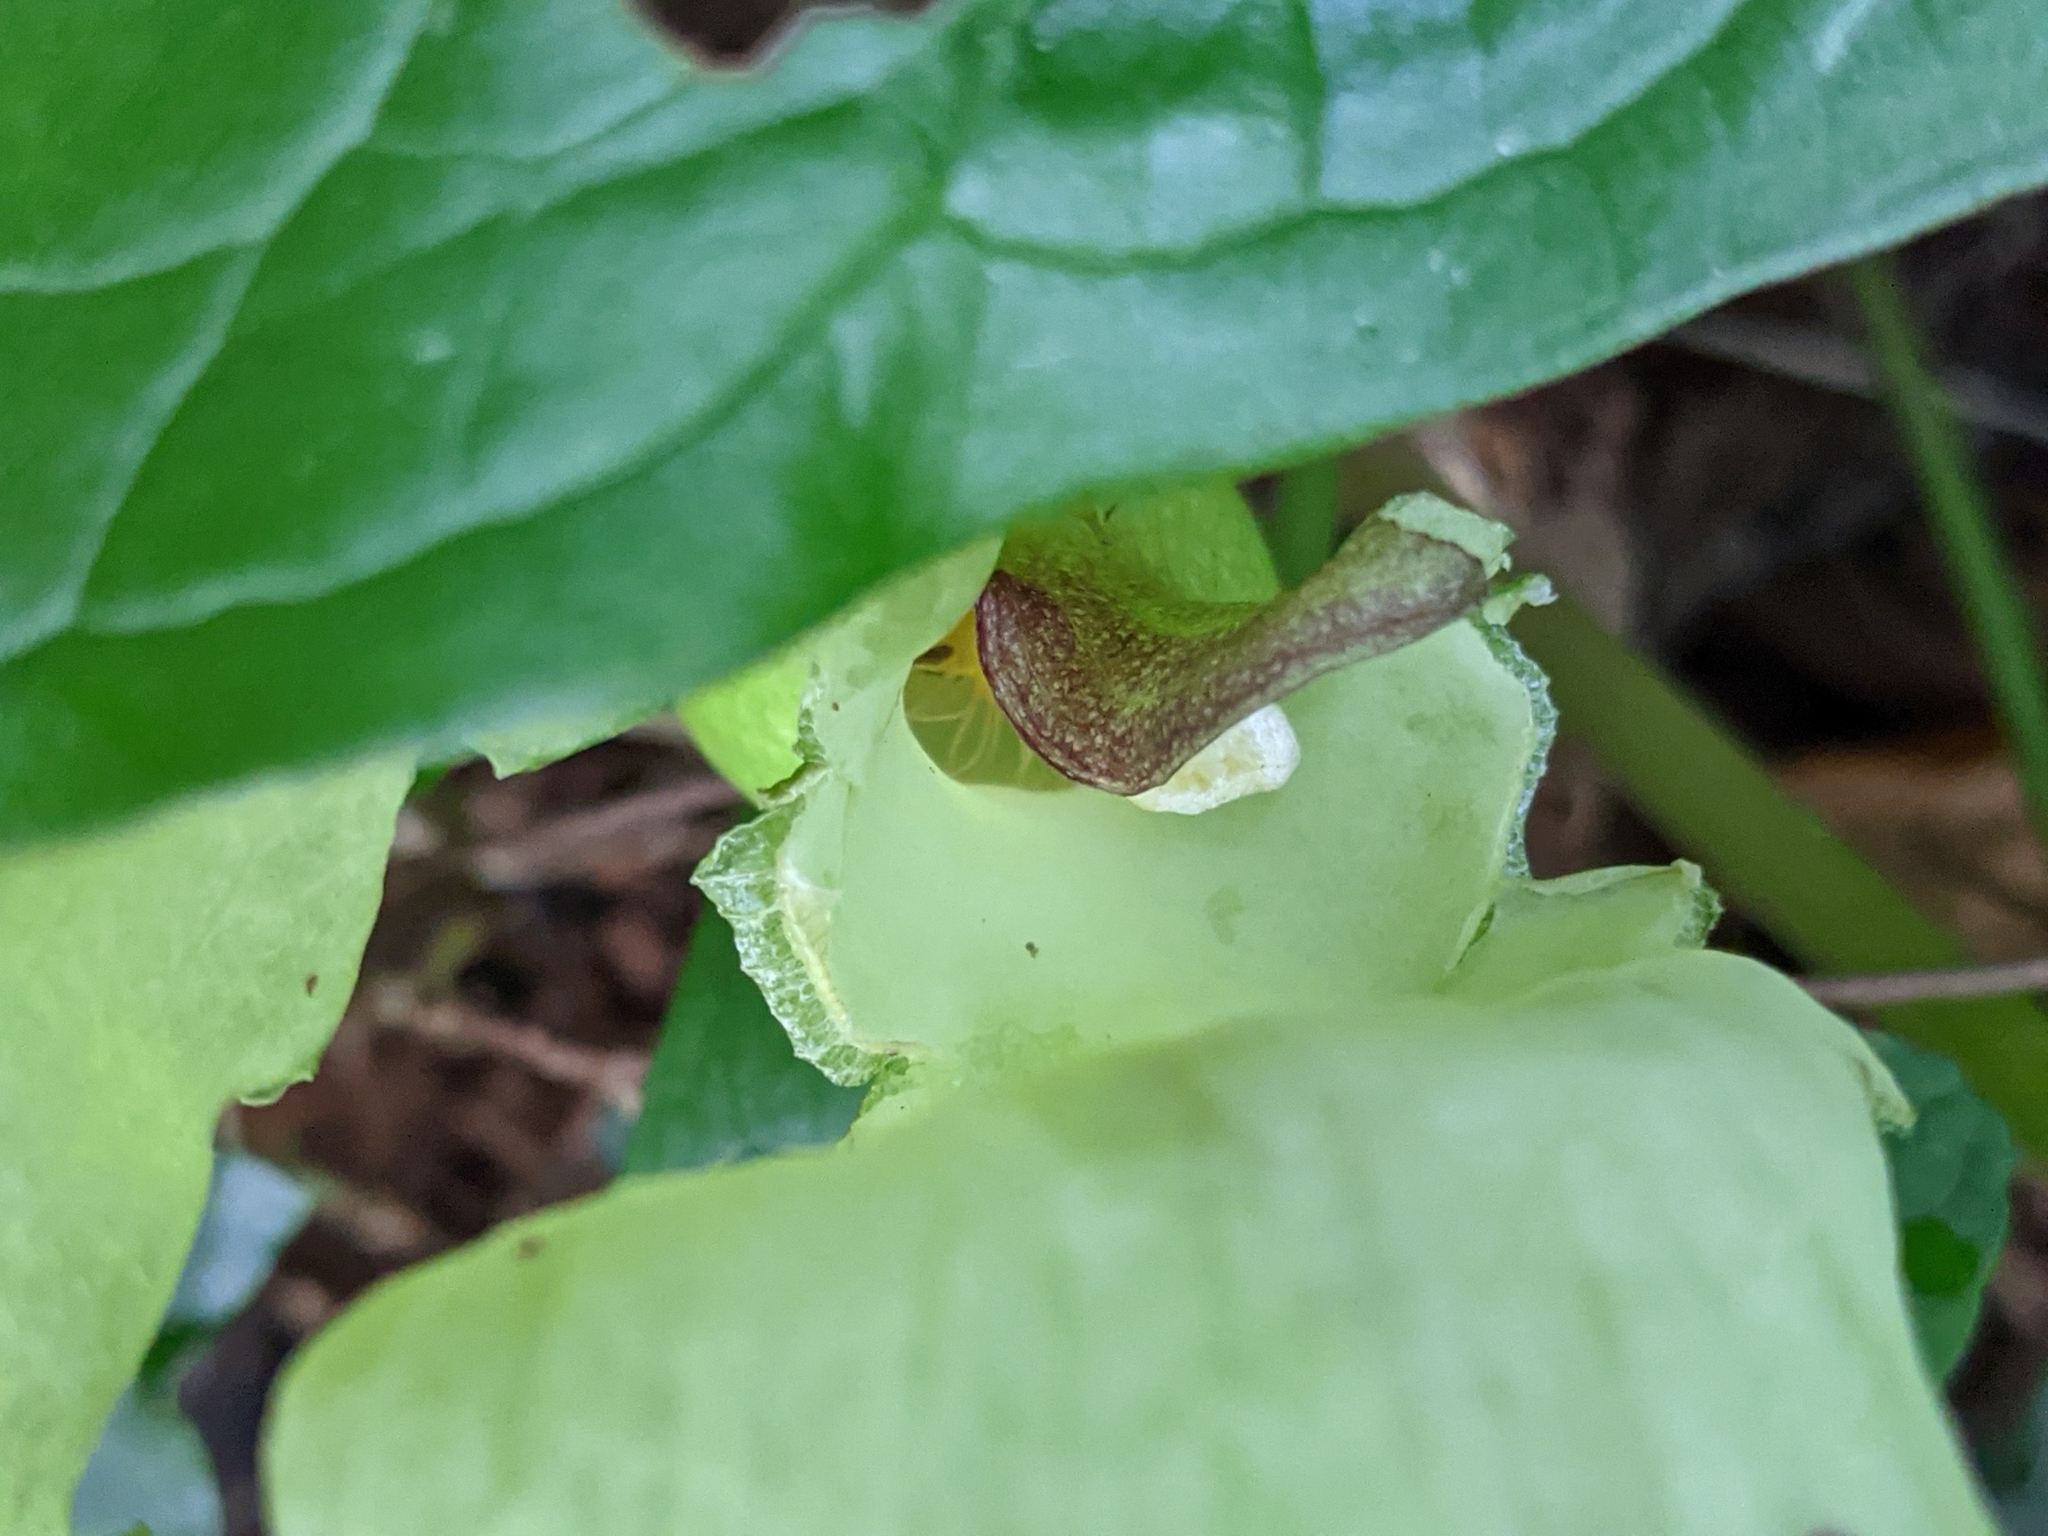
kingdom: Plantae
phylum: Tracheophyta
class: Liliopsida
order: Alismatales
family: Araceae
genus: Arum
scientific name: Arum maculatum
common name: Lords-and-ladies
